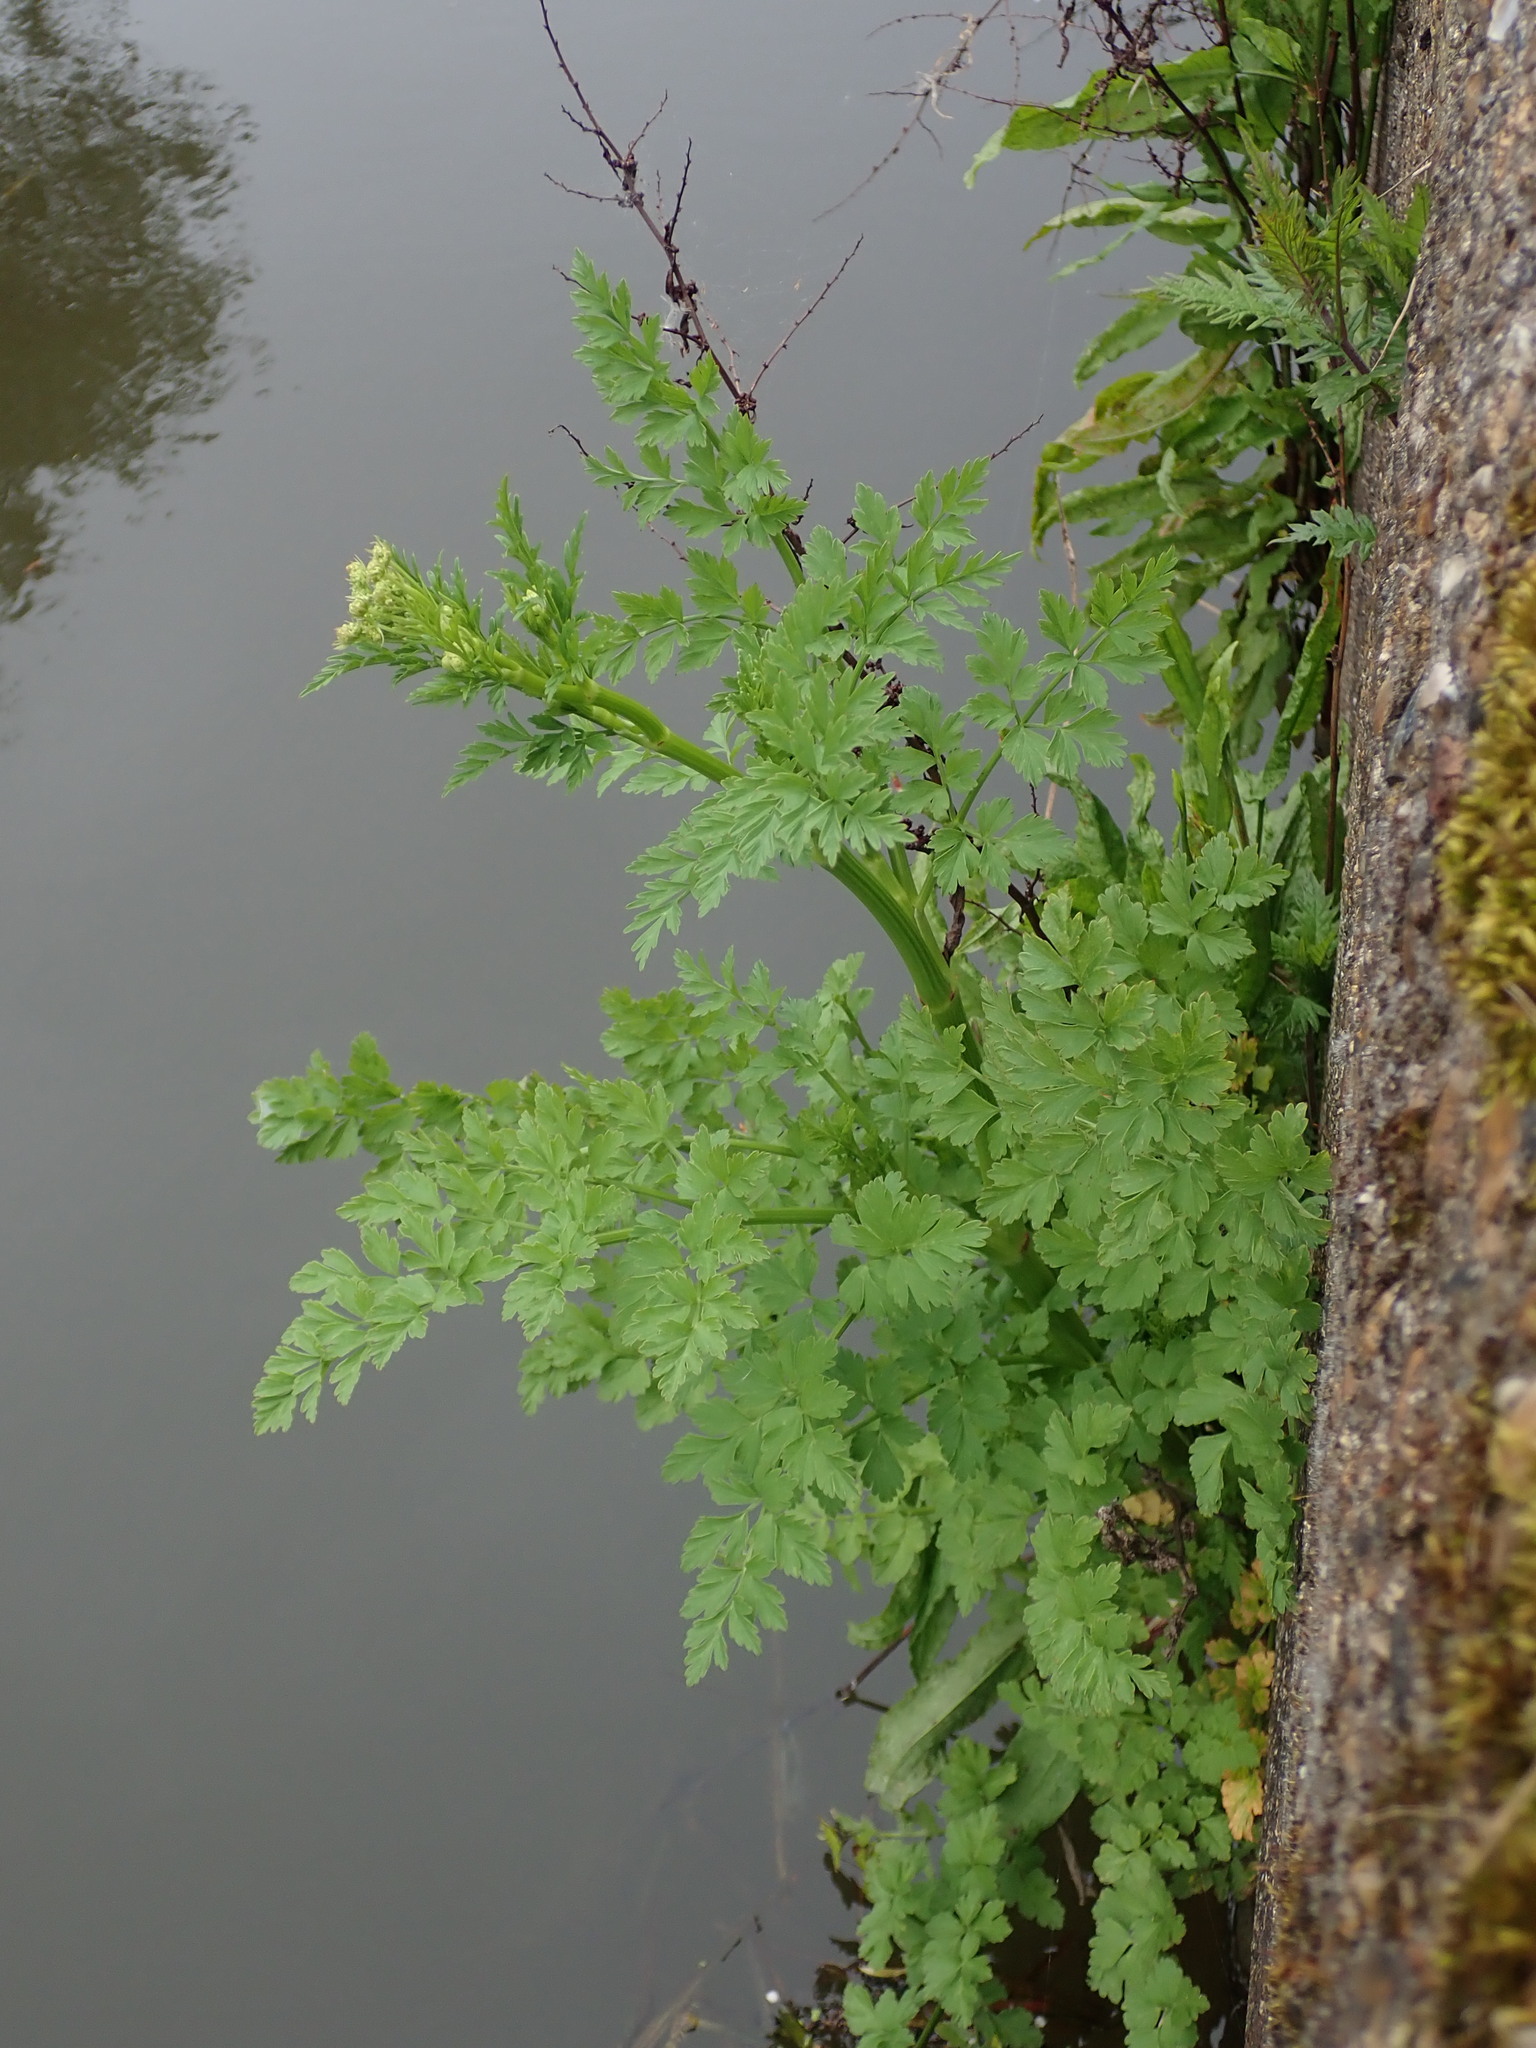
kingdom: Plantae
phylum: Tracheophyta
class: Magnoliopsida
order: Apiales
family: Apiaceae
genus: Oenanthe
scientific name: Oenanthe crocata
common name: Hemlock water-dropwort
